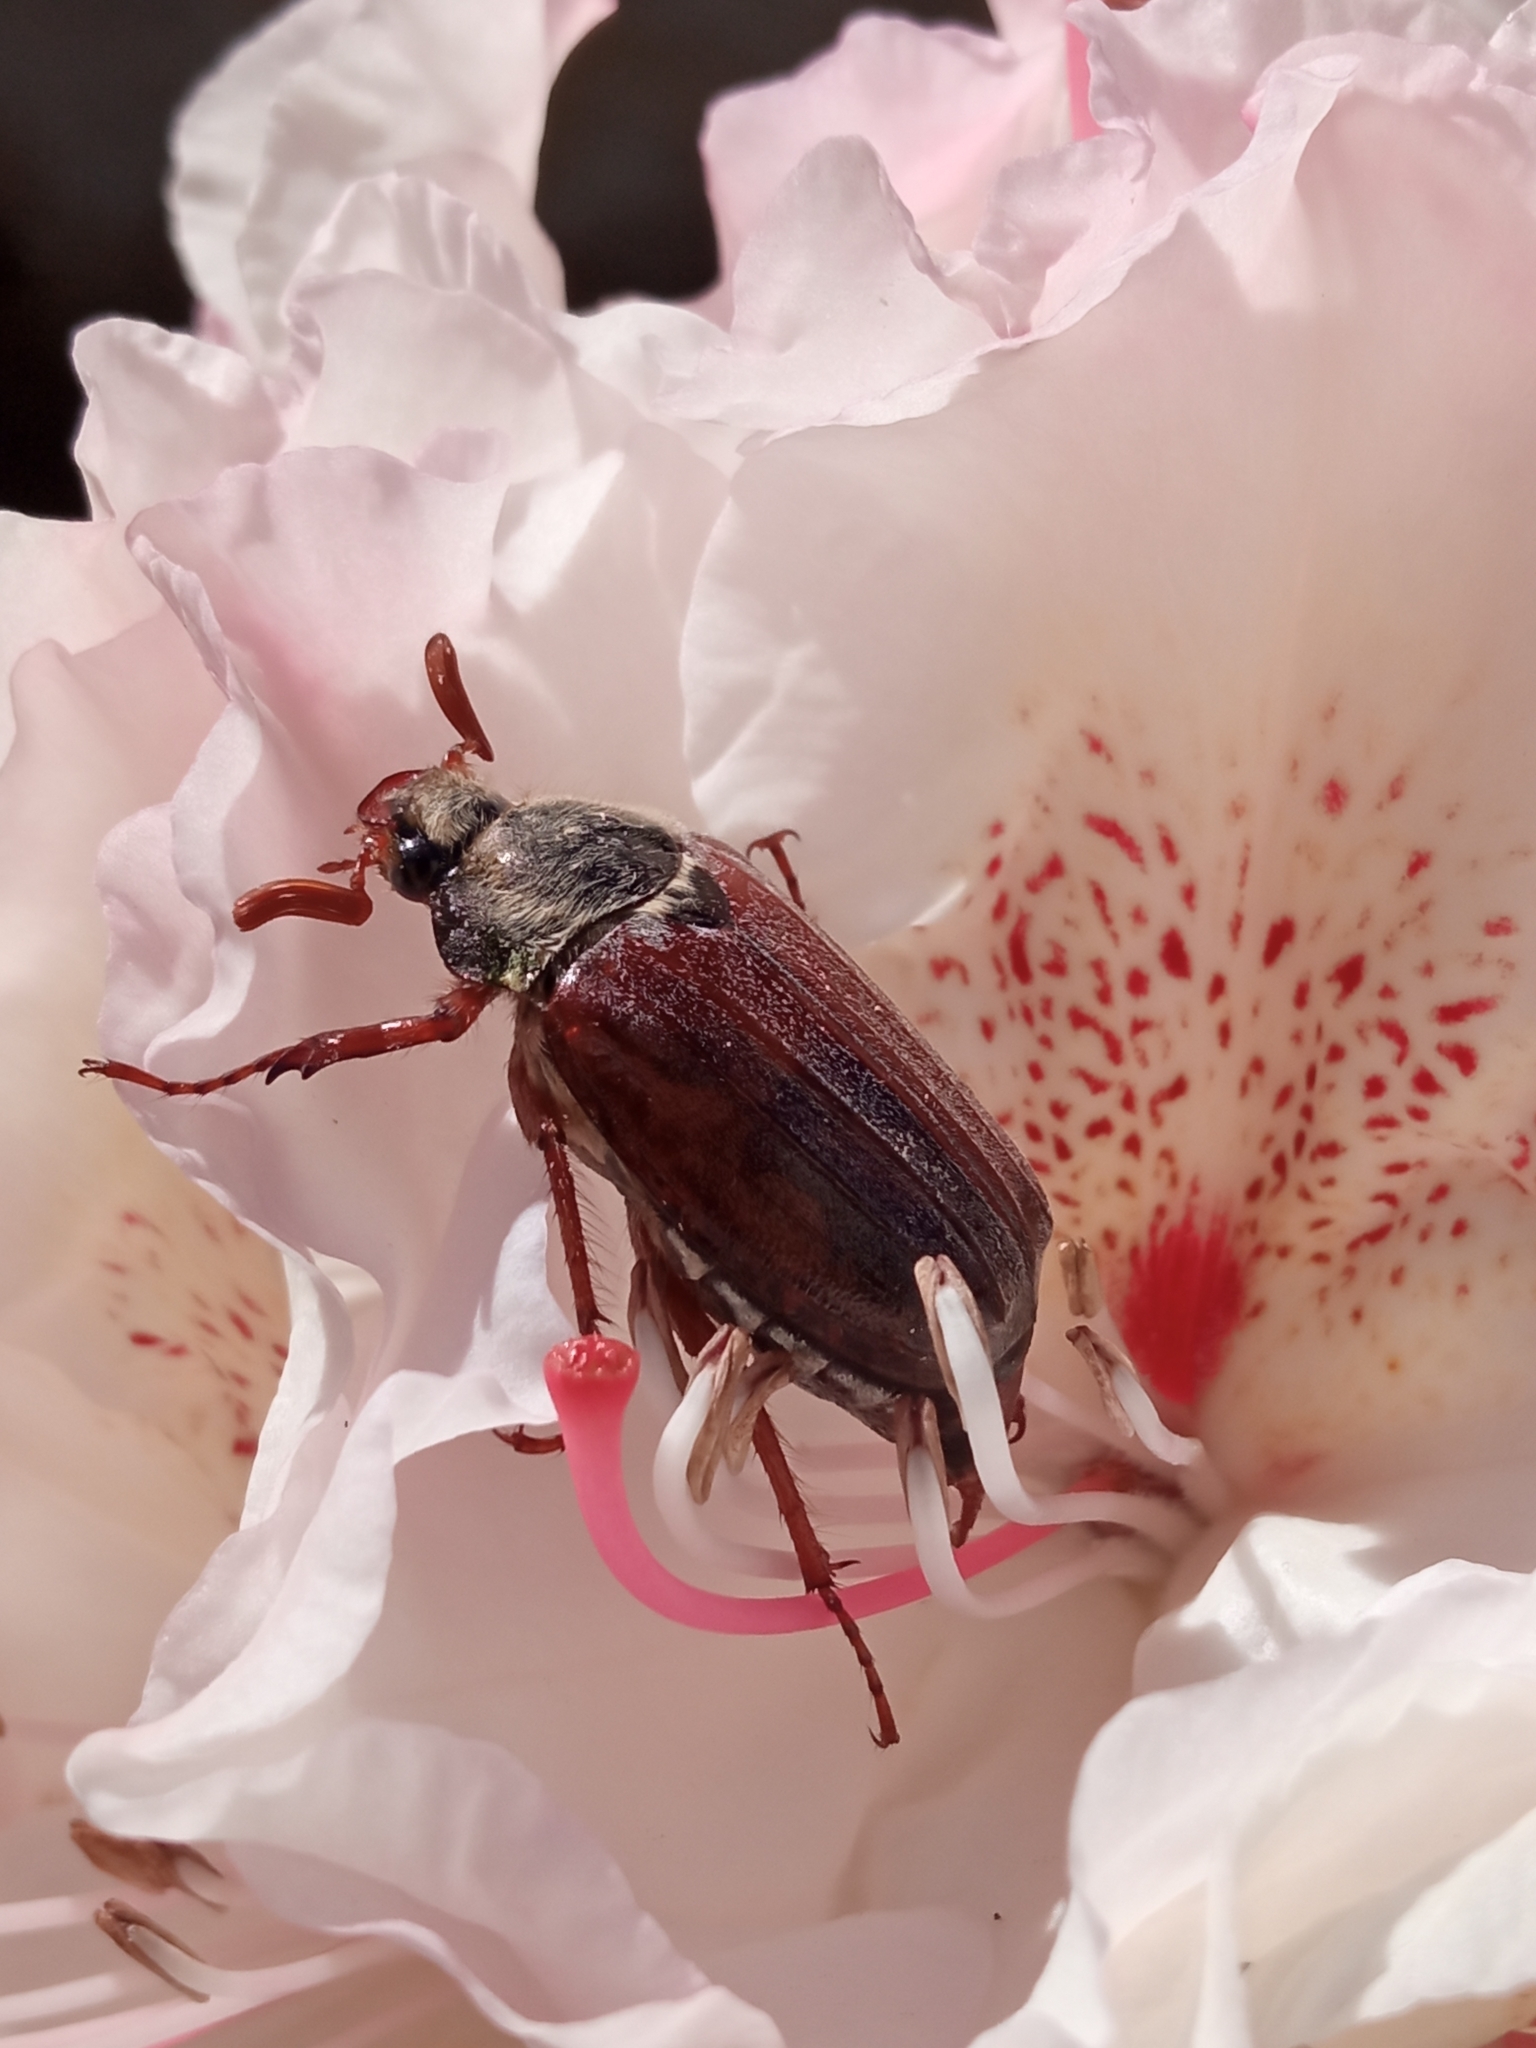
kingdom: Animalia
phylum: Arthropoda
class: Insecta
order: Coleoptera
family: Scarabaeidae
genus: Melolontha
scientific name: Melolontha melolontha
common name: Cockchafer maybeetle
